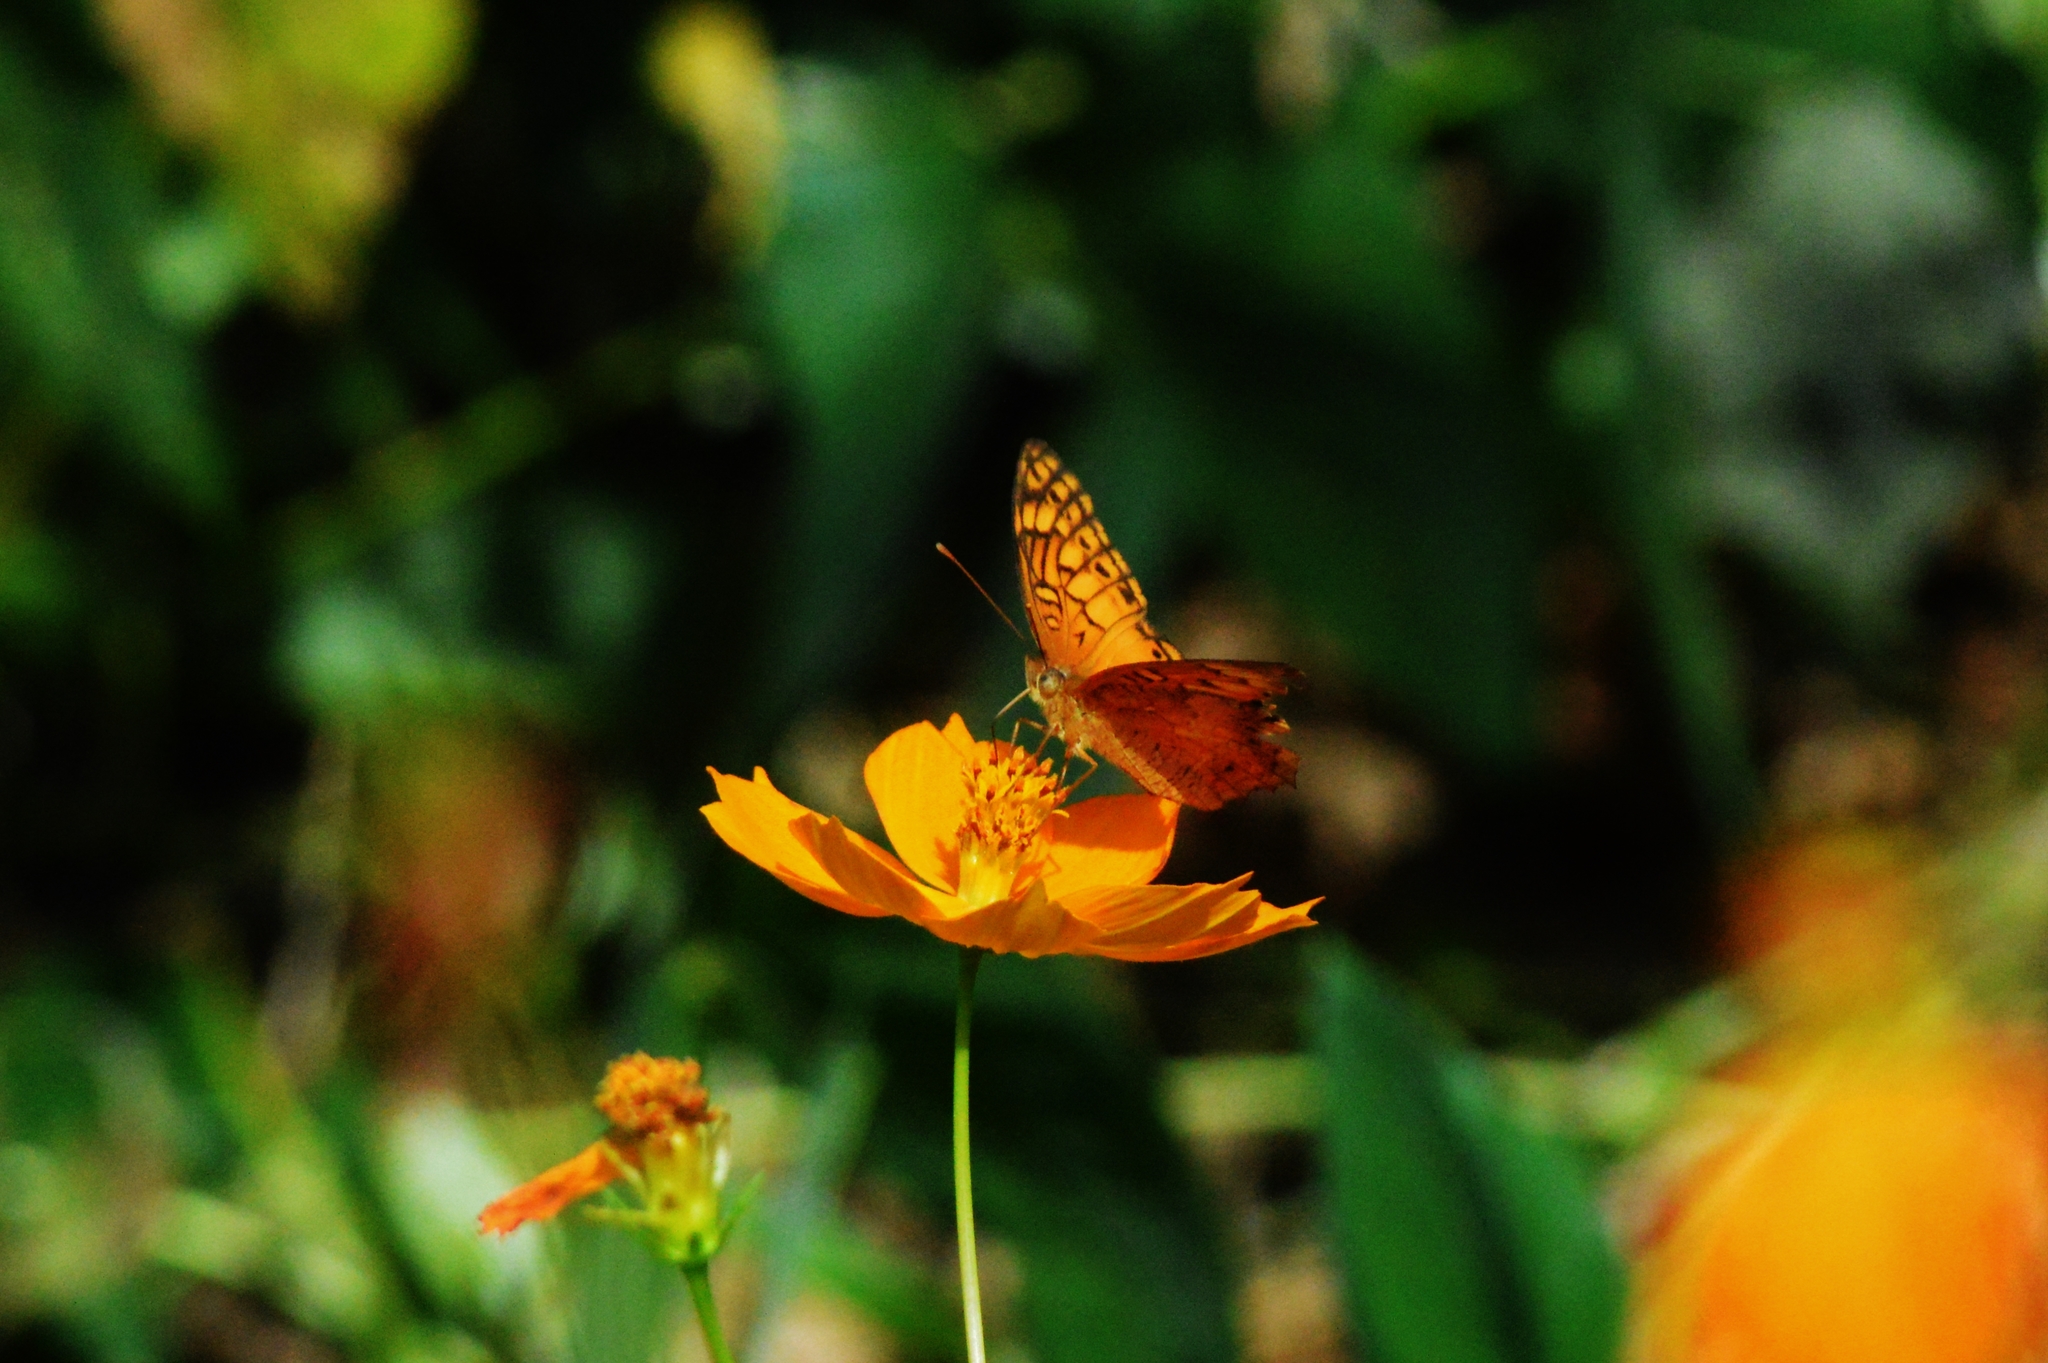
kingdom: Animalia
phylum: Arthropoda
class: Insecta
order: Lepidoptera
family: Nymphalidae
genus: Euptoieta
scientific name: Euptoieta hegesia
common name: Mexican fritillary
